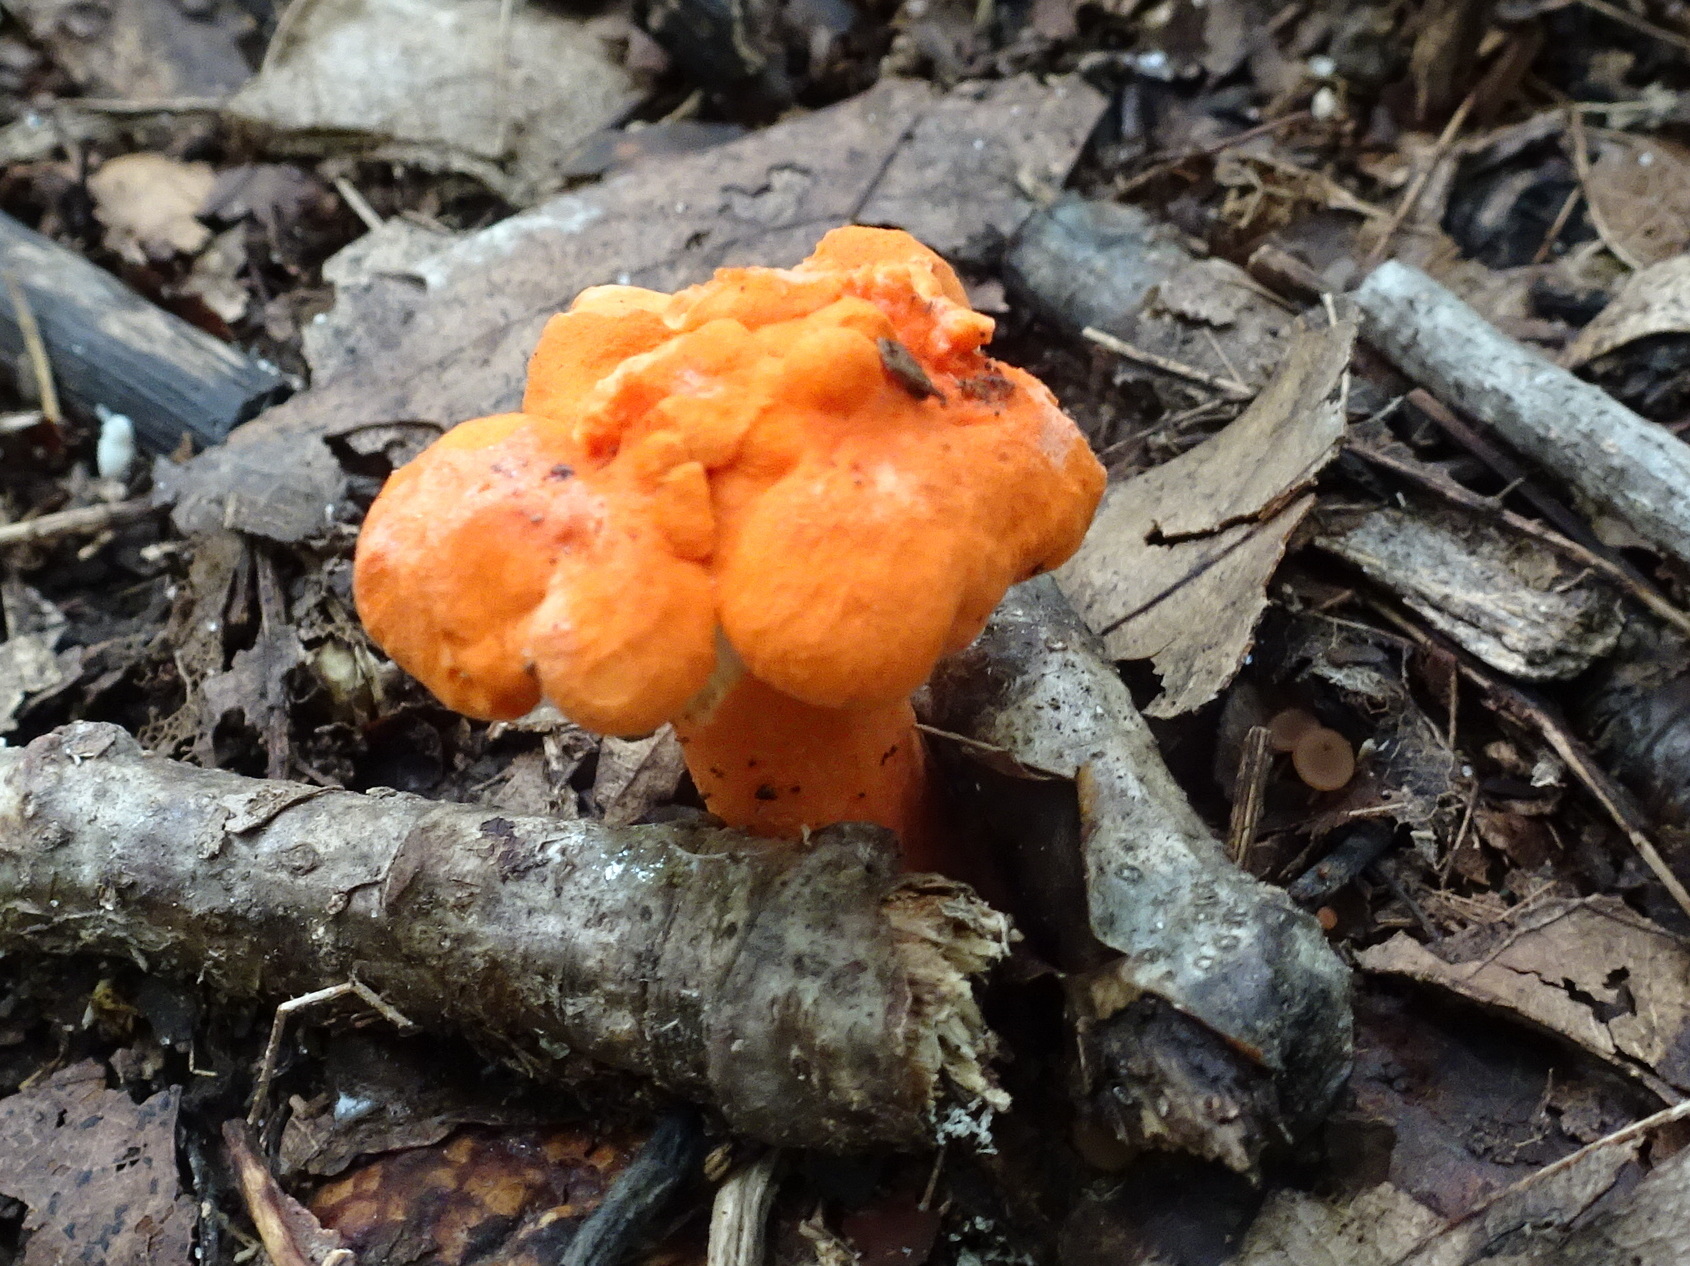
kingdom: Fungi
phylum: Basidiomycota
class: Agaricomycetes
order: Cantharellales
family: Hydnaceae
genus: Cantharellus
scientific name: Cantharellus cinnabarinus
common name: Cinnabar chanterelle
